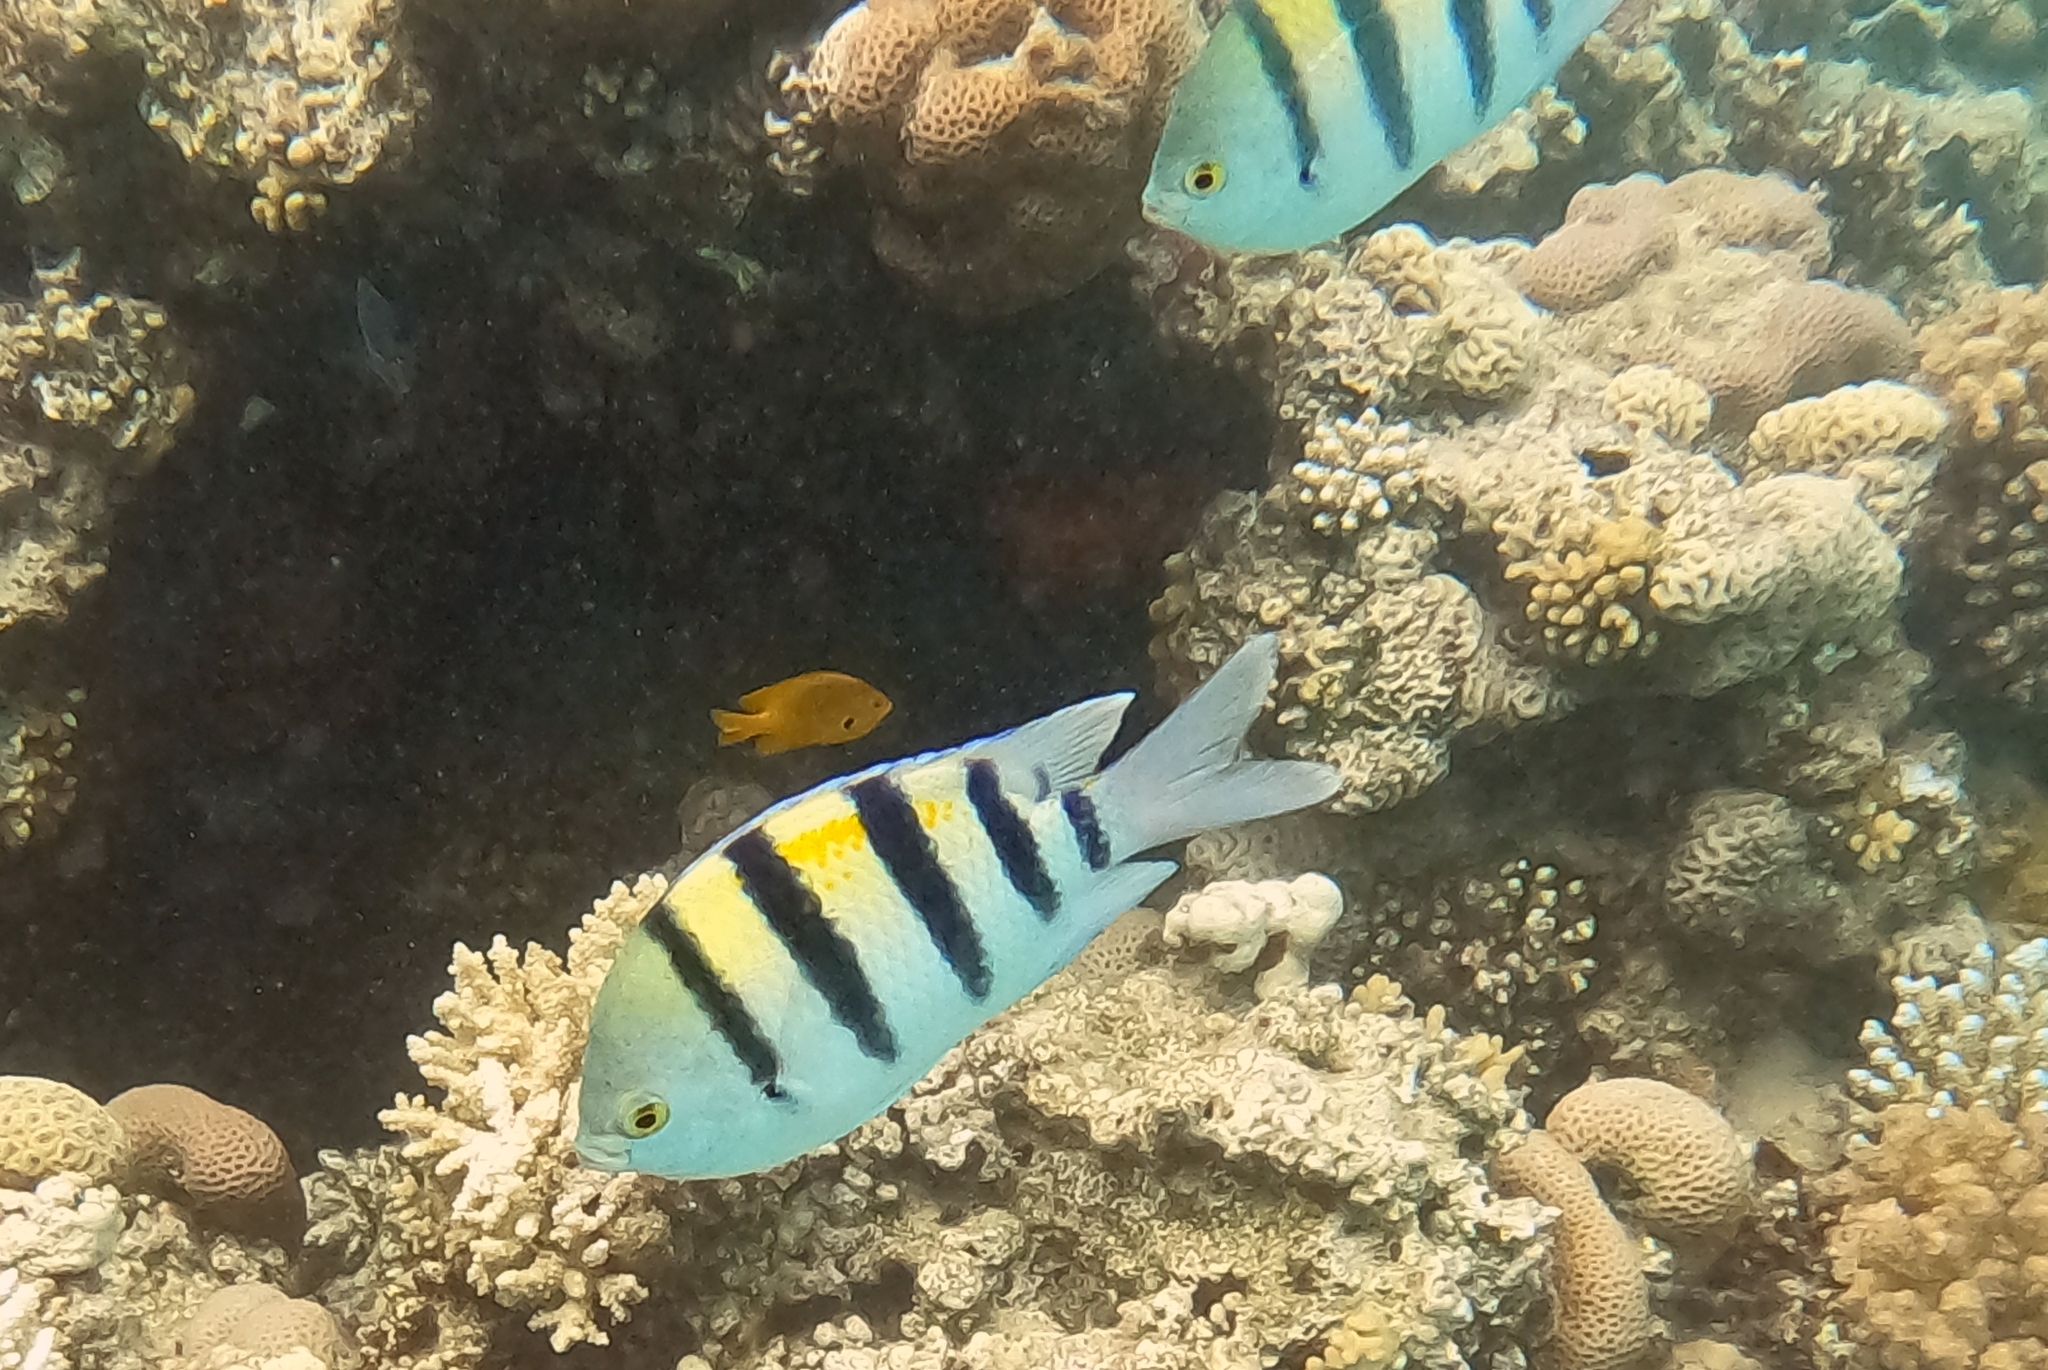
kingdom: Animalia
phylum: Chordata
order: Perciformes
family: Pomacentridae
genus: Abudefduf
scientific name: Abudefduf vaigiensis
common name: Indo-pacific sergeant
